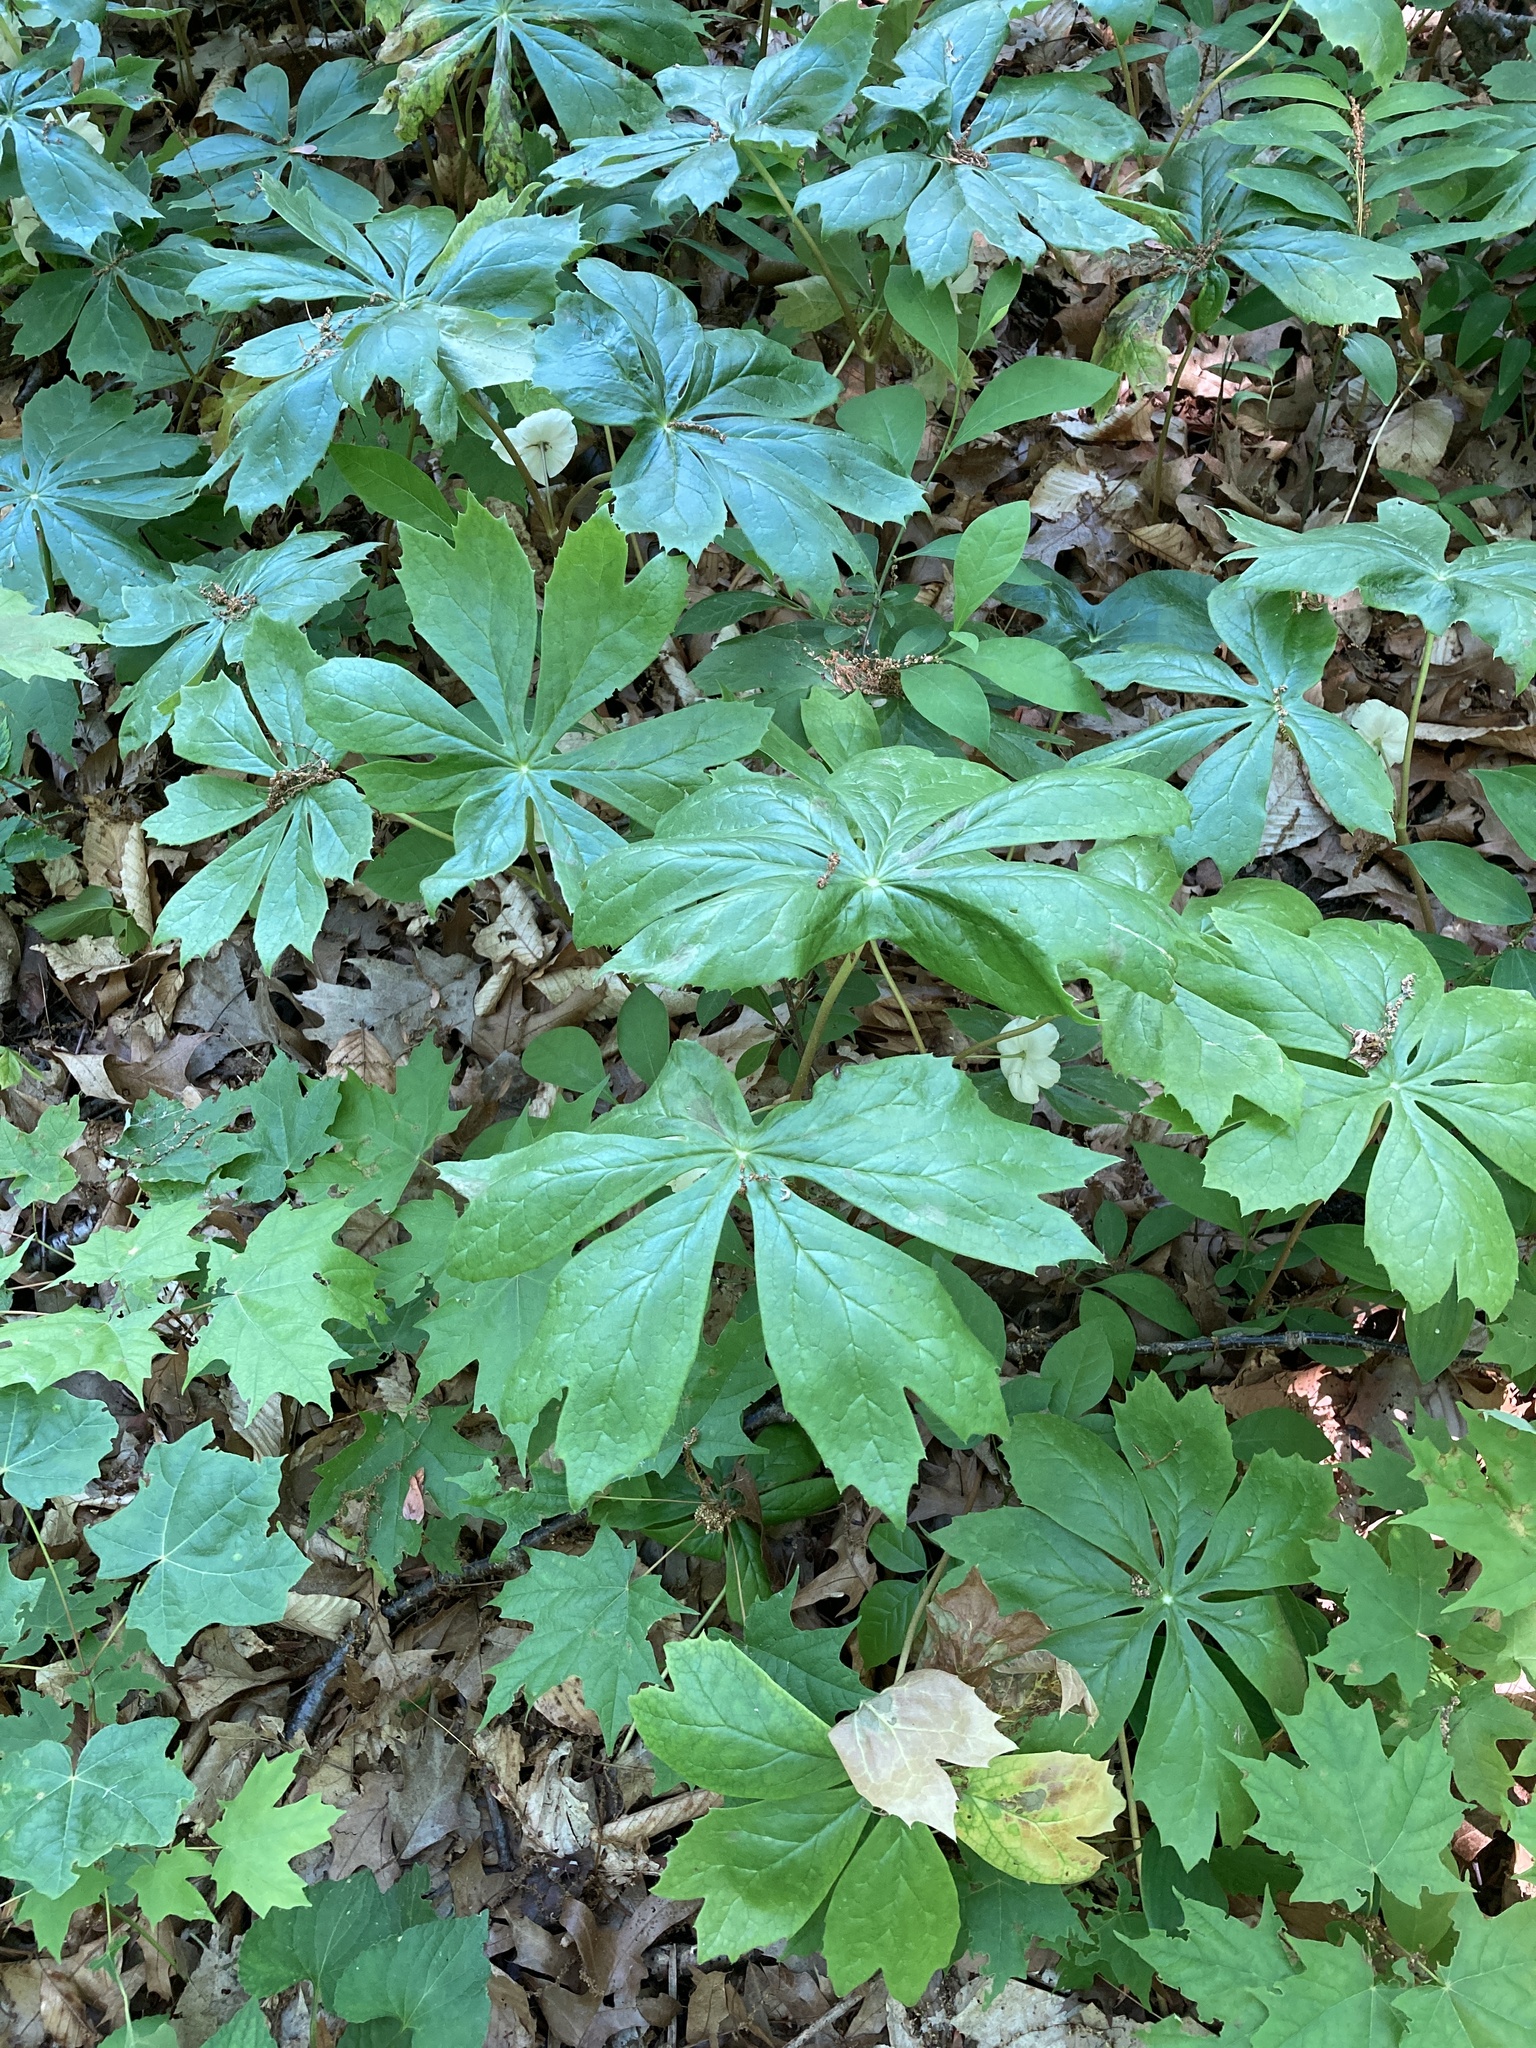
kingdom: Plantae
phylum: Tracheophyta
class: Magnoliopsida
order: Ranunculales
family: Berberidaceae
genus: Podophyllum
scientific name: Podophyllum peltatum
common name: Wild mandrake
